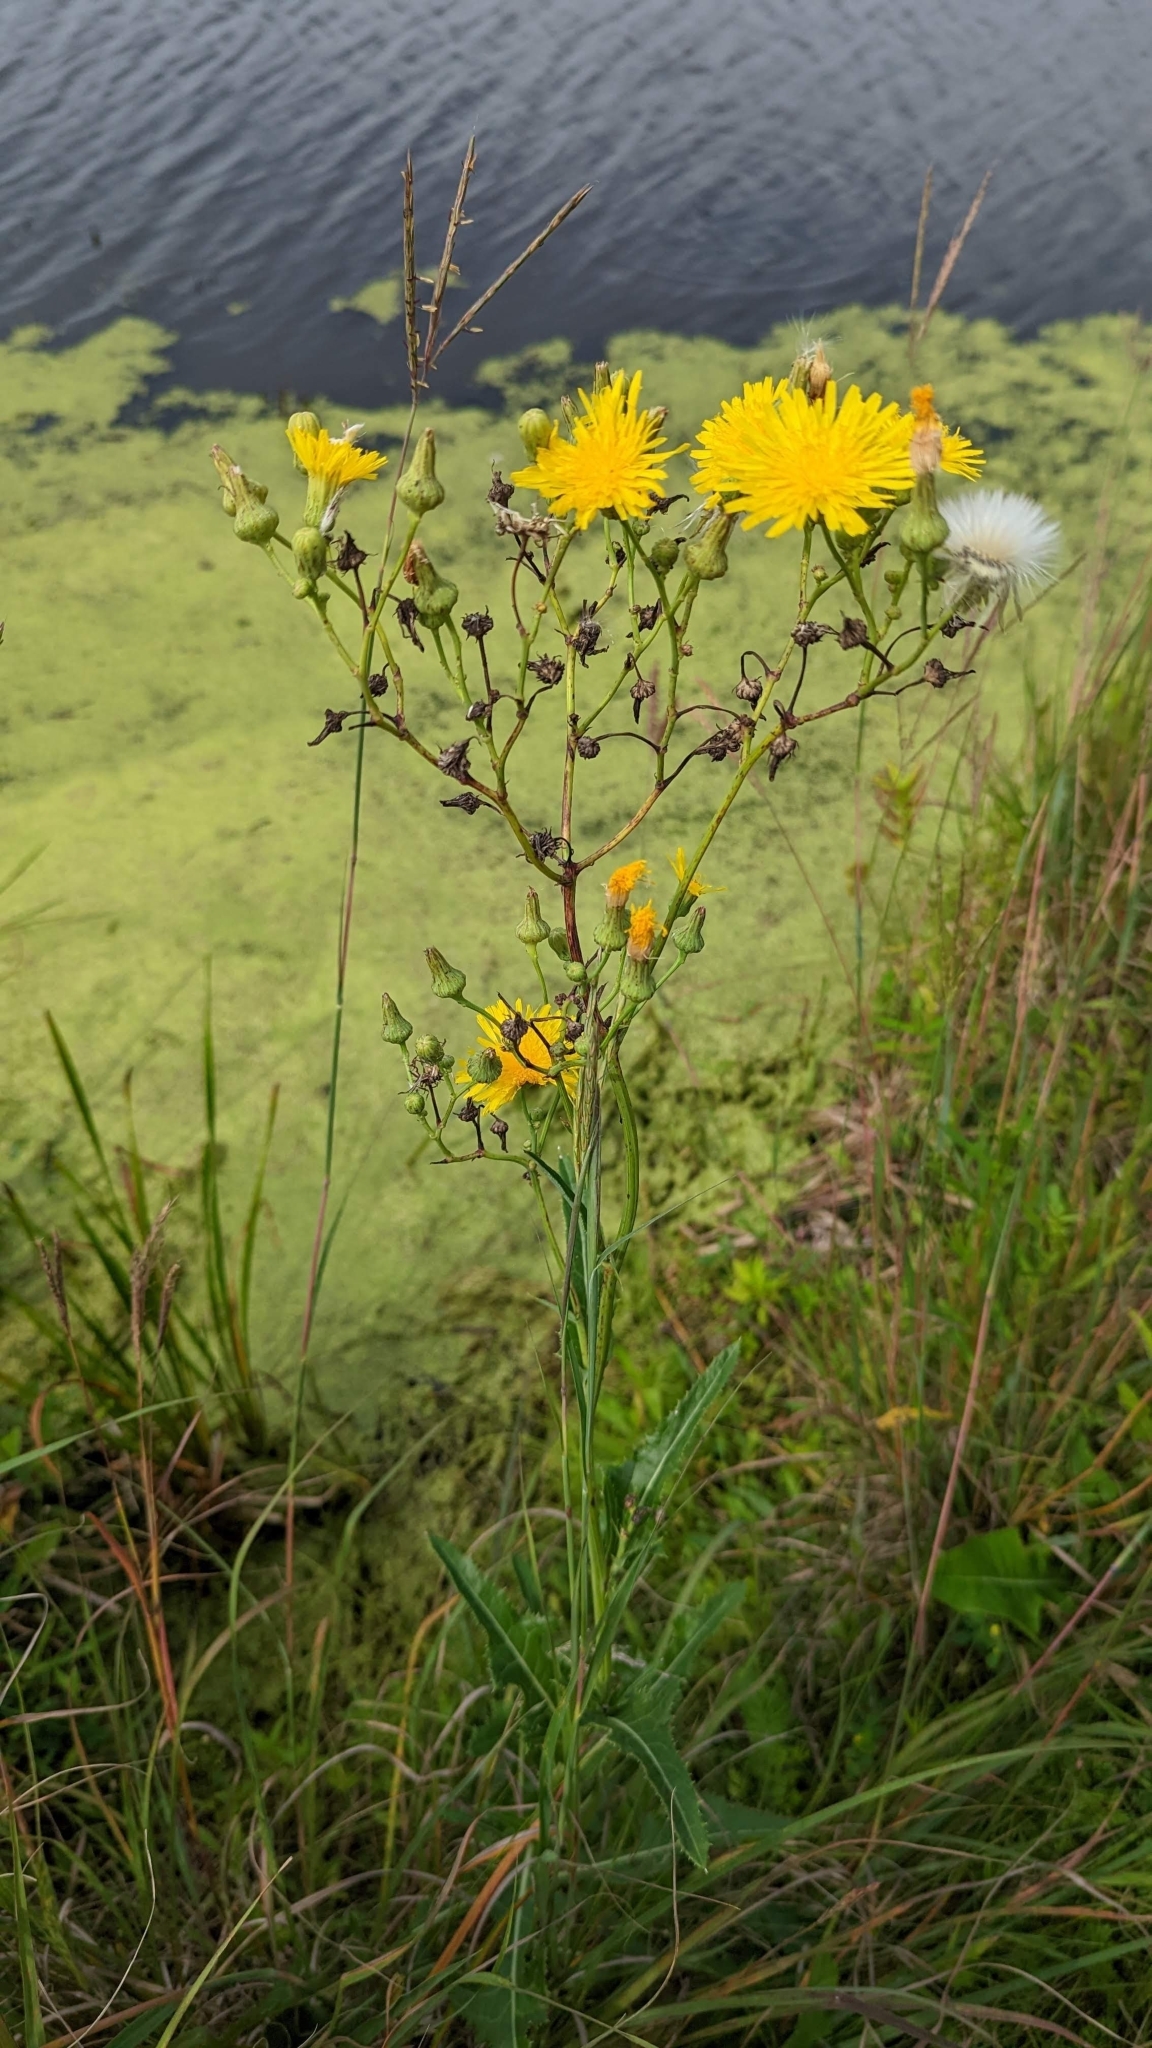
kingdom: Plantae
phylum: Tracheophyta
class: Magnoliopsida
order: Asterales
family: Asteraceae
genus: Sonchus
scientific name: Sonchus arvensis
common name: Perennial sow-thistle
